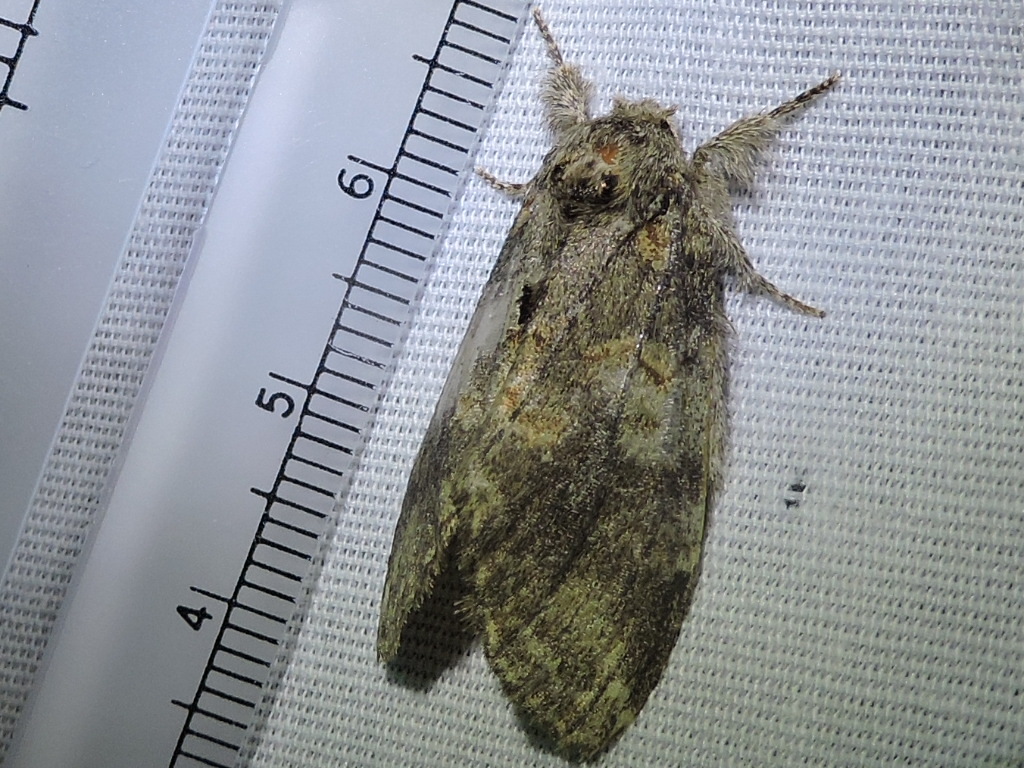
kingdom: Animalia
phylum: Arthropoda
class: Insecta
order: Lepidoptera
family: Notodontidae
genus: Peridea
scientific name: Peridea angulosa
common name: Angulose prominent
